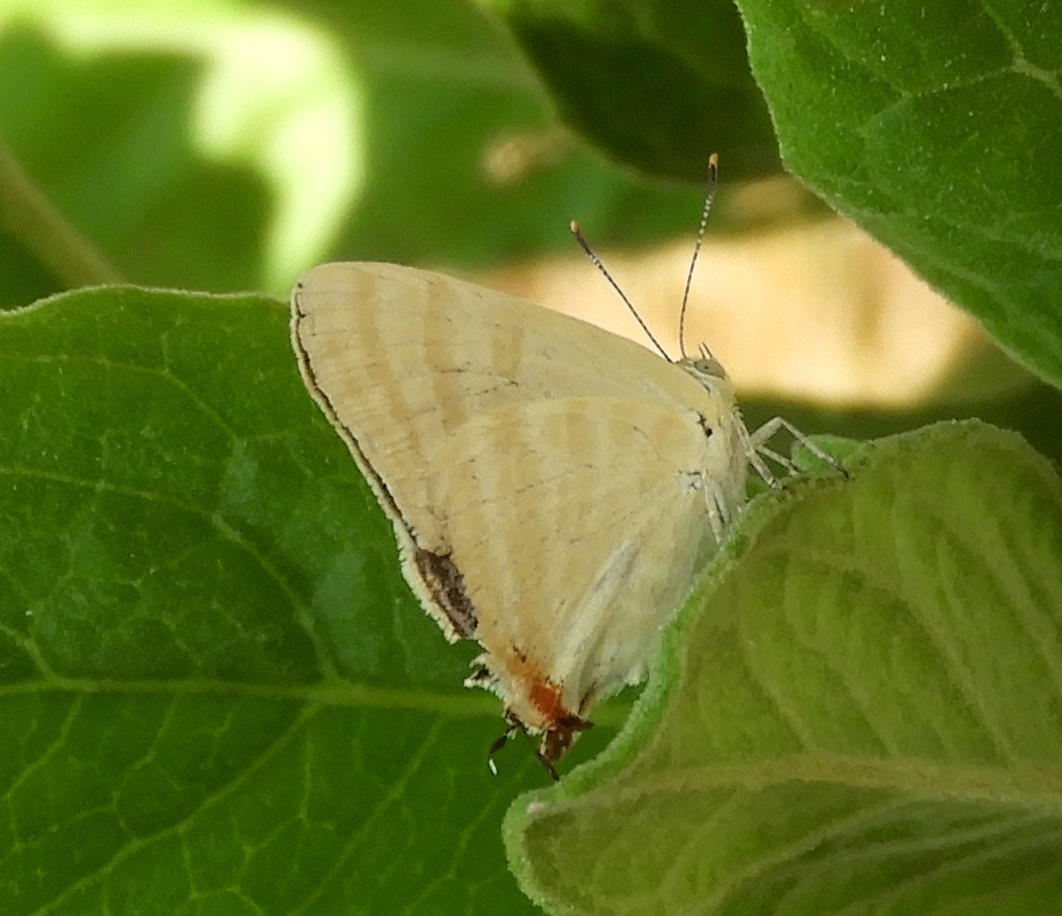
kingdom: Animalia
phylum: Arthropoda
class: Insecta
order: Lepidoptera
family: Lycaenidae
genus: Dolymorpha
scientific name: Dolymorpha jada
